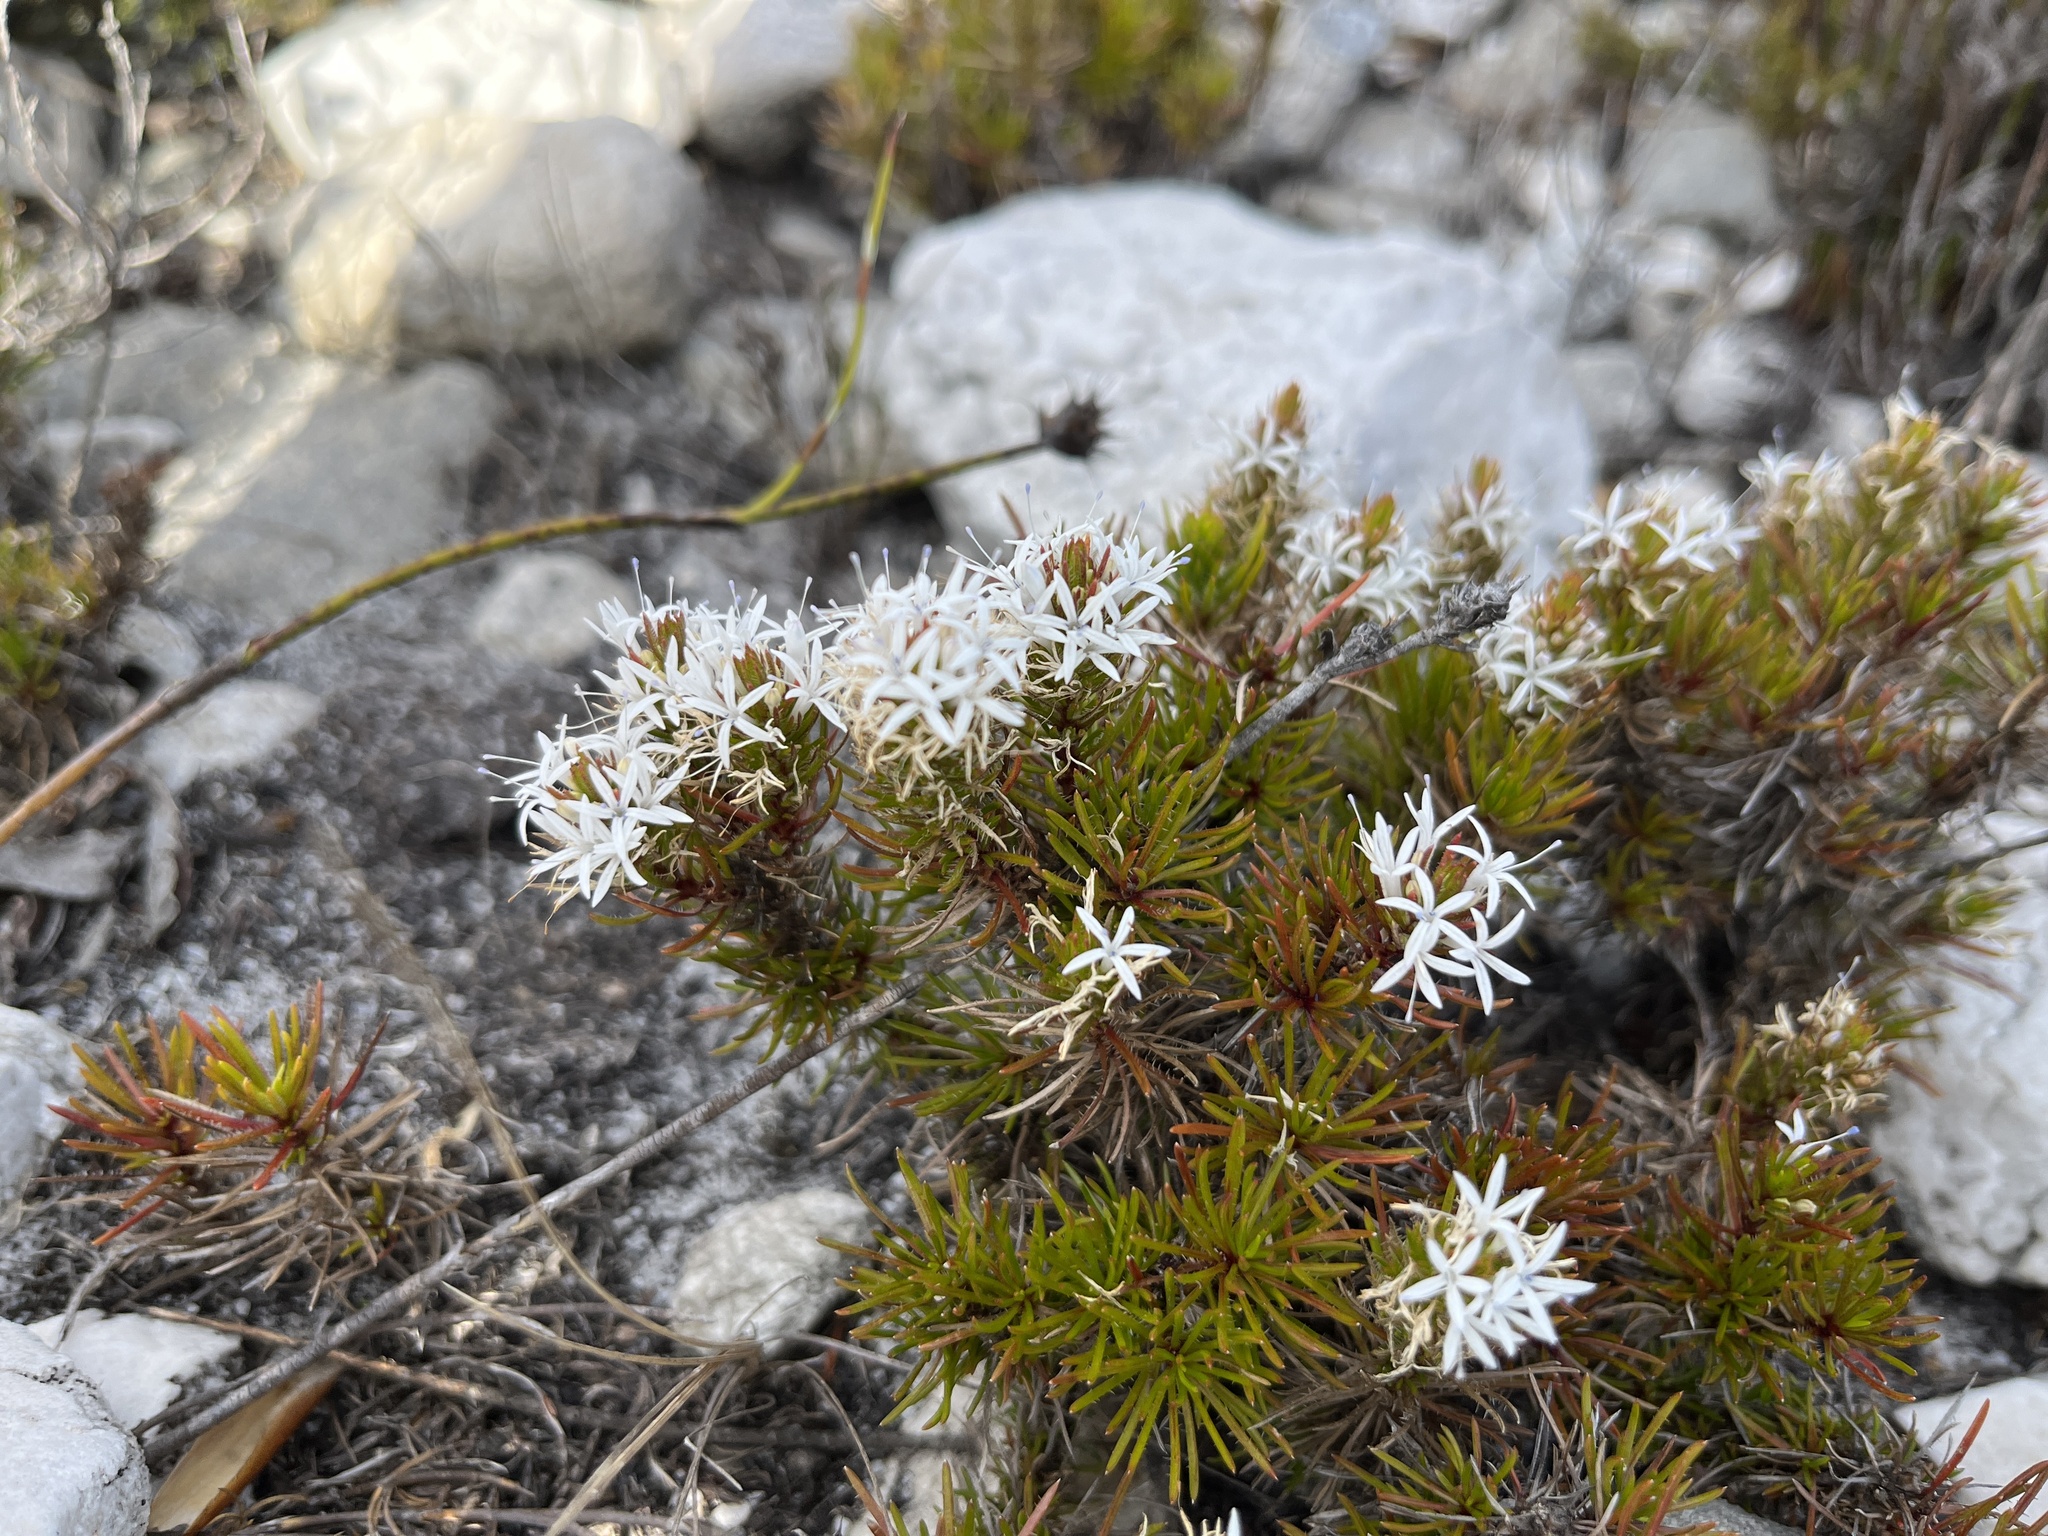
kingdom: Plantae
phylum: Tracheophyta
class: Magnoliopsida
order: Asterales
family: Campanulaceae
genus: Merciera
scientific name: Merciera leptoloba
